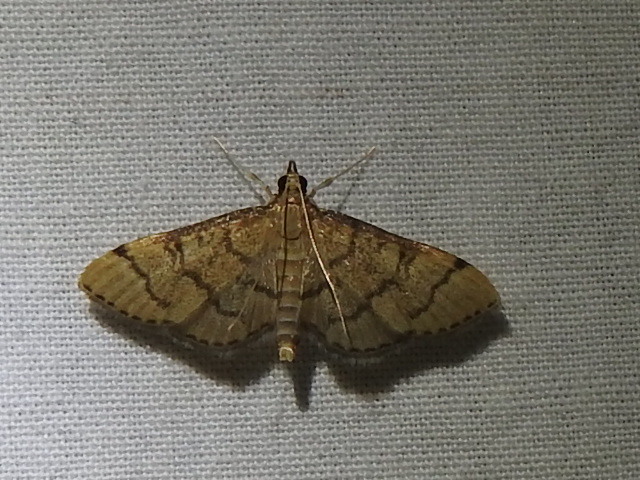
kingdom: Animalia
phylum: Arthropoda
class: Insecta
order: Lepidoptera
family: Crambidae
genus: Lamprosema
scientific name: Lamprosema Blepharomastix ranalis
